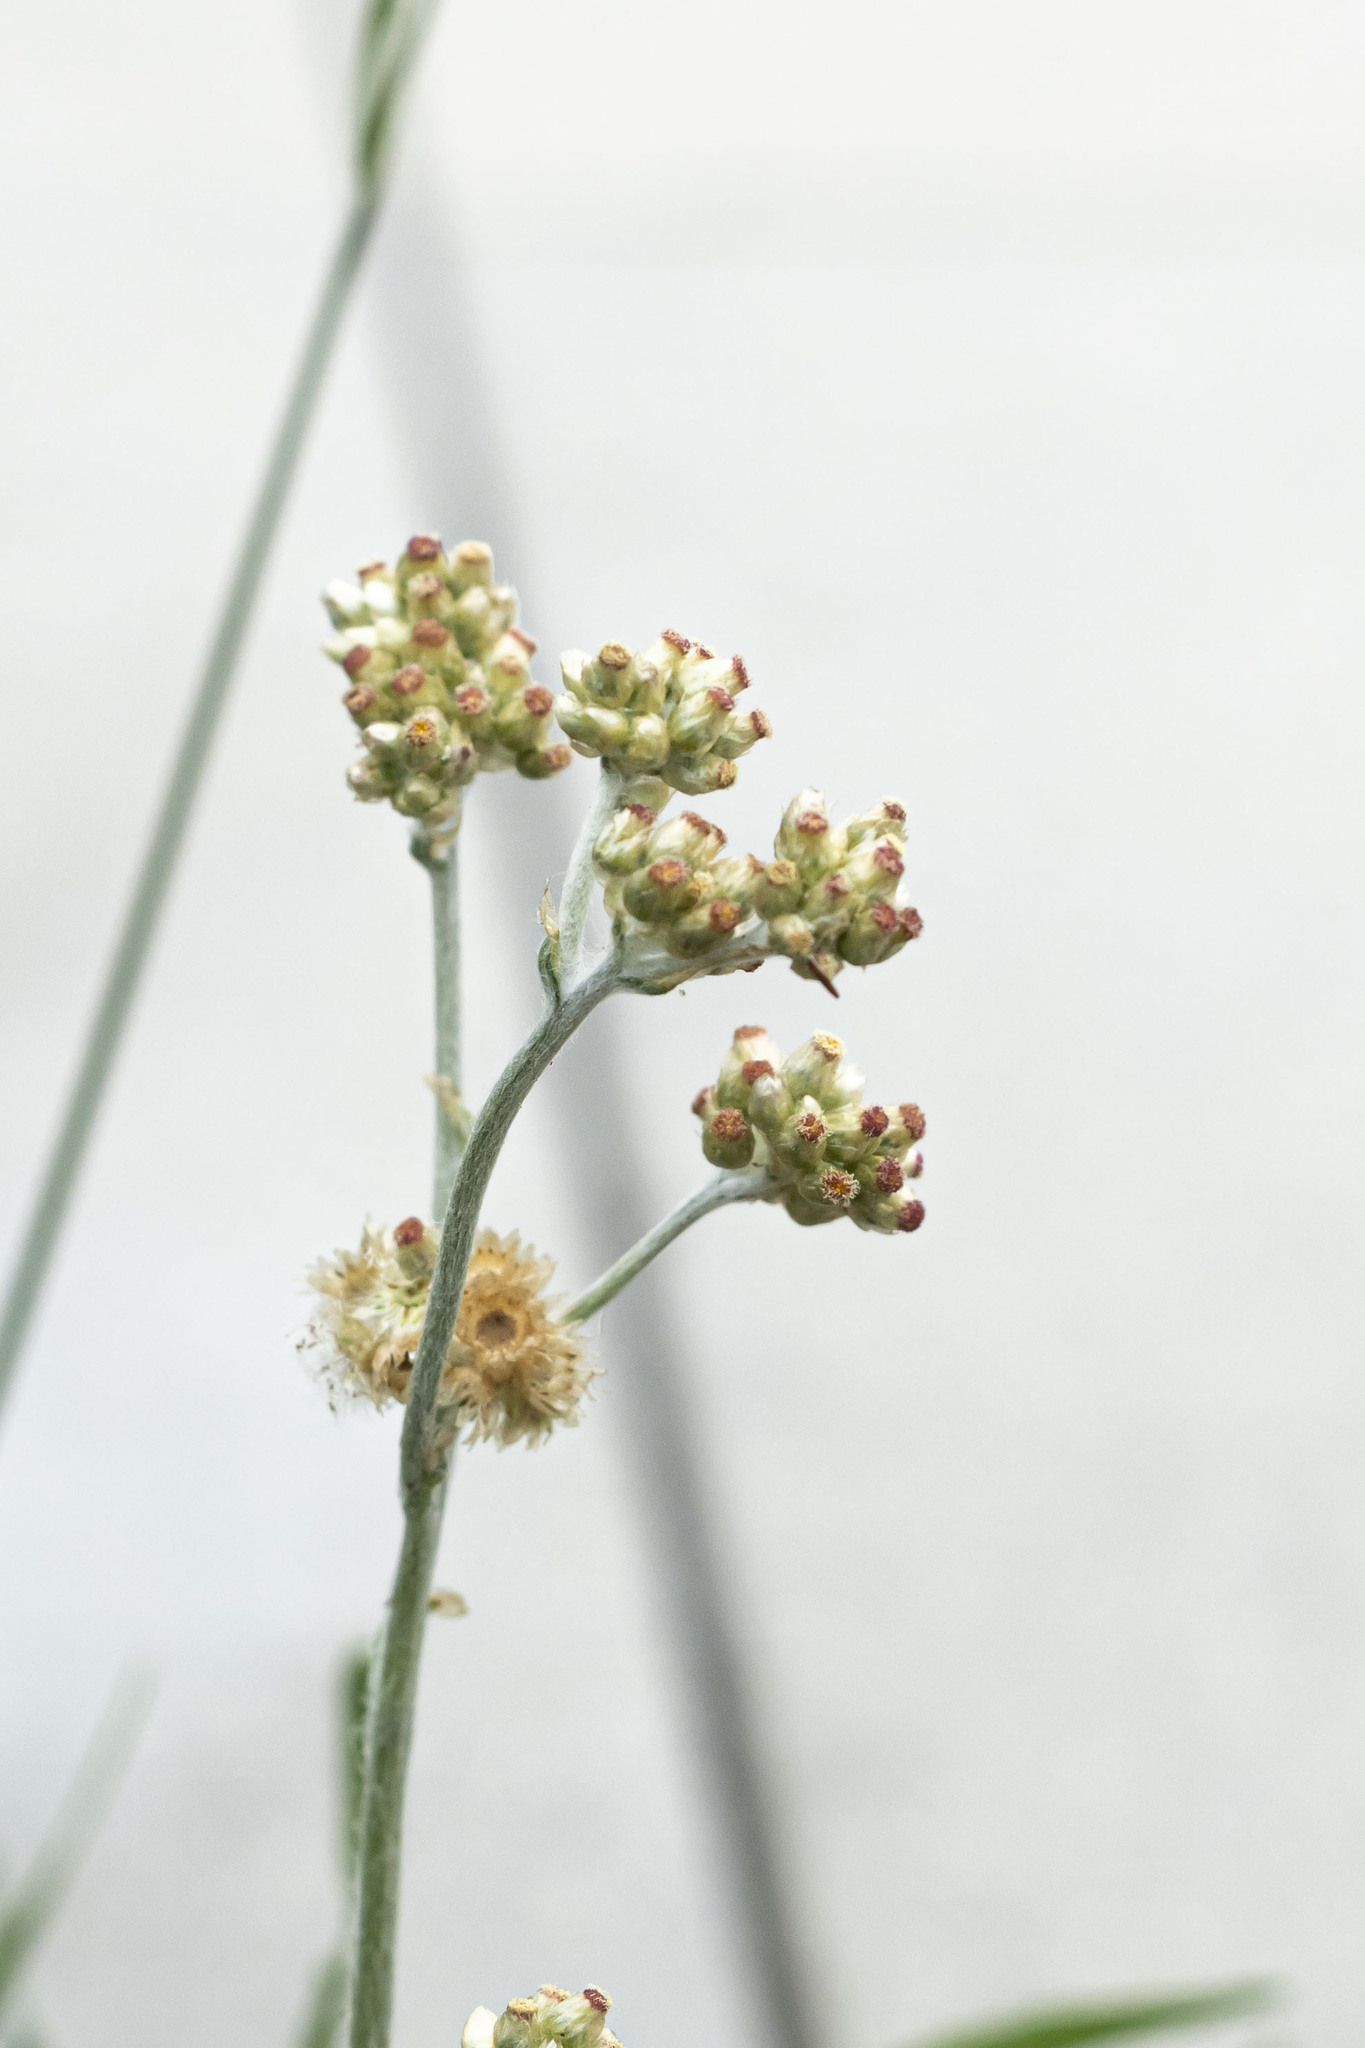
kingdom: Plantae
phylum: Tracheophyta
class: Magnoliopsida
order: Asterales
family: Asteraceae
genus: Helichrysum
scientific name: Helichrysum luteoalbum
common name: Daisy
